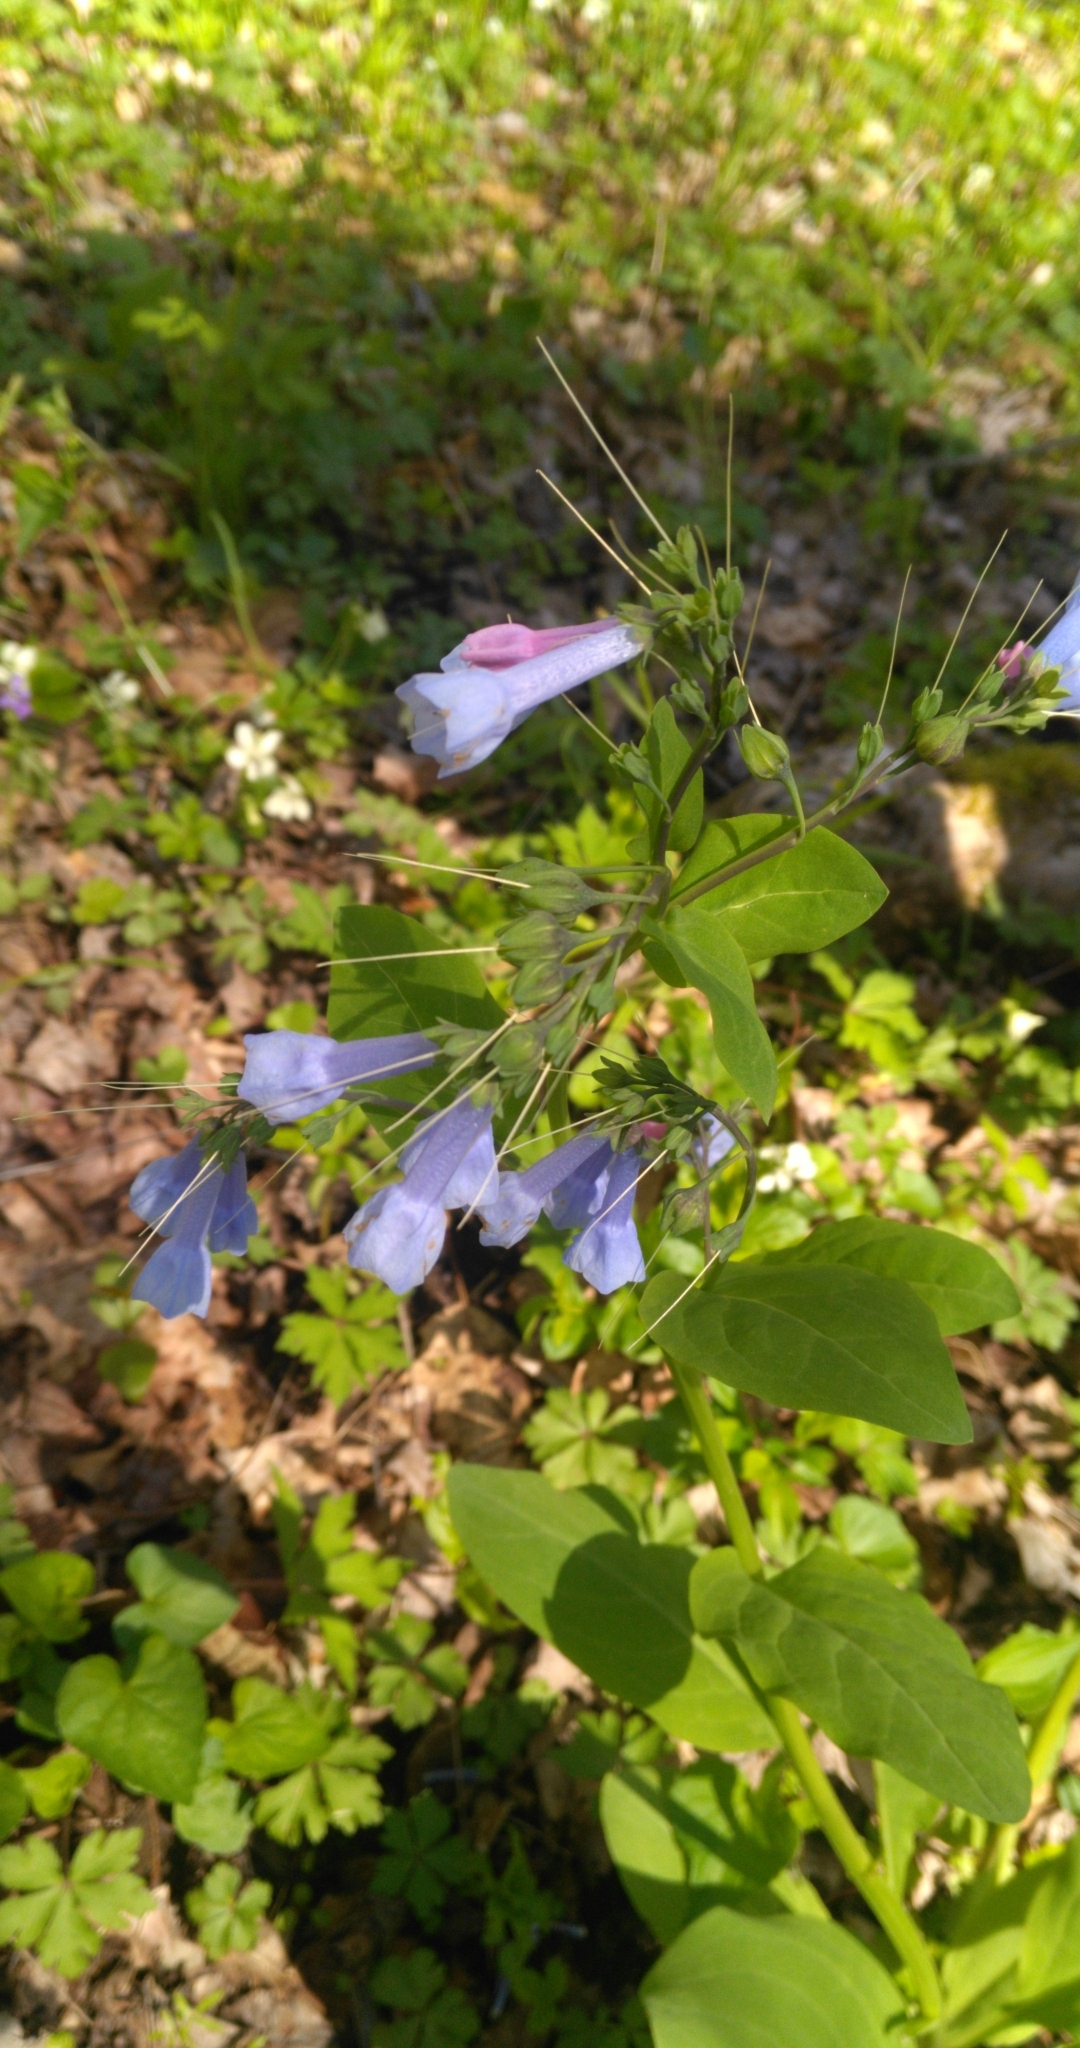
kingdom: Plantae
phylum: Tracheophyta
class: Magnoliopsida
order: Boraginales
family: Boraginaceae
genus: Mertensia
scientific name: Mertensia virginica
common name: Virginia bluebells
